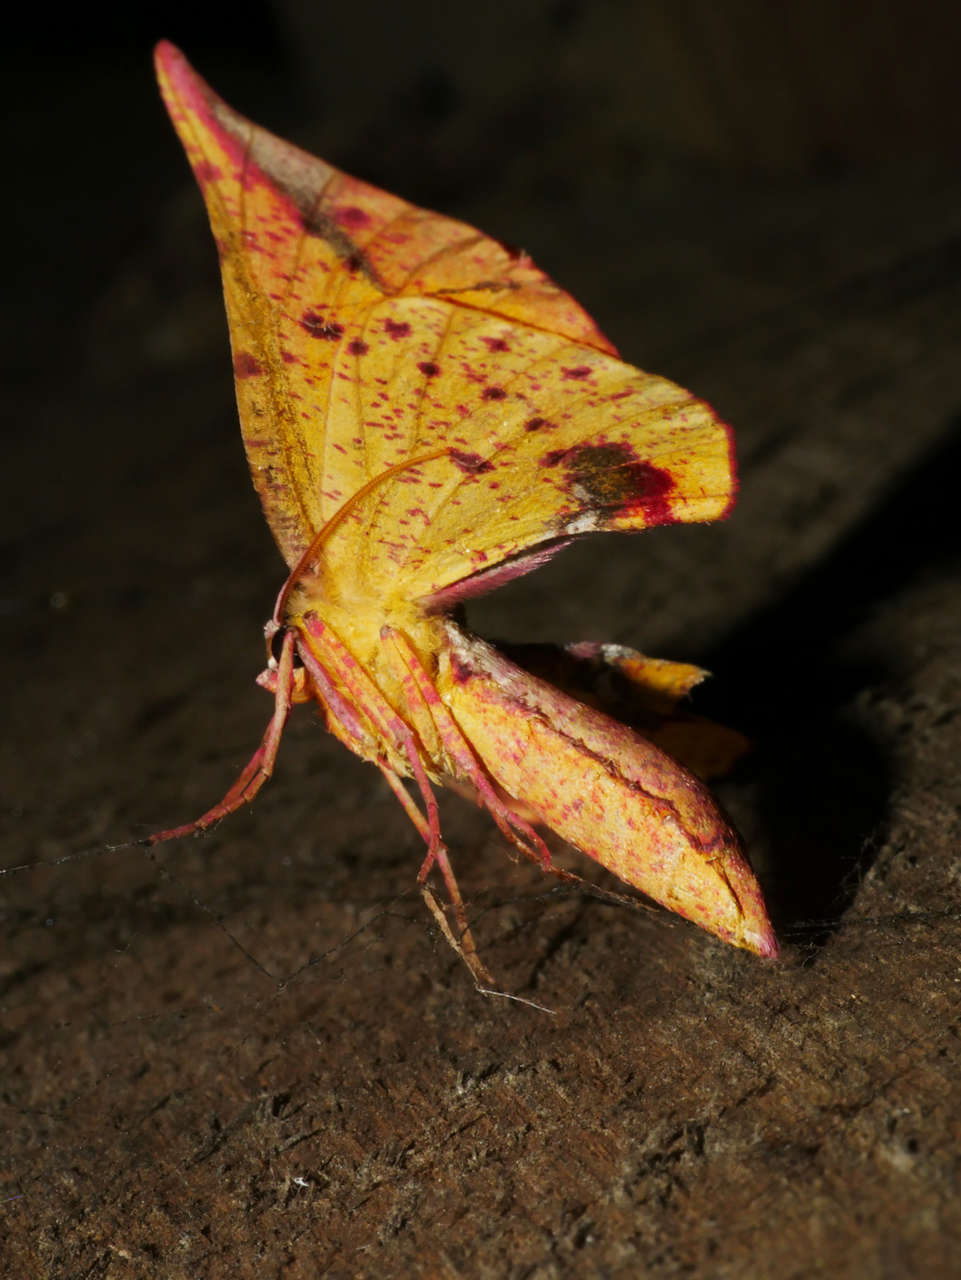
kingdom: Animalia
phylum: Arthropoda
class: Insecta
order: Lepidoptera
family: Geometridae
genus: Parepisparis
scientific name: Parepisparis lutosaria
